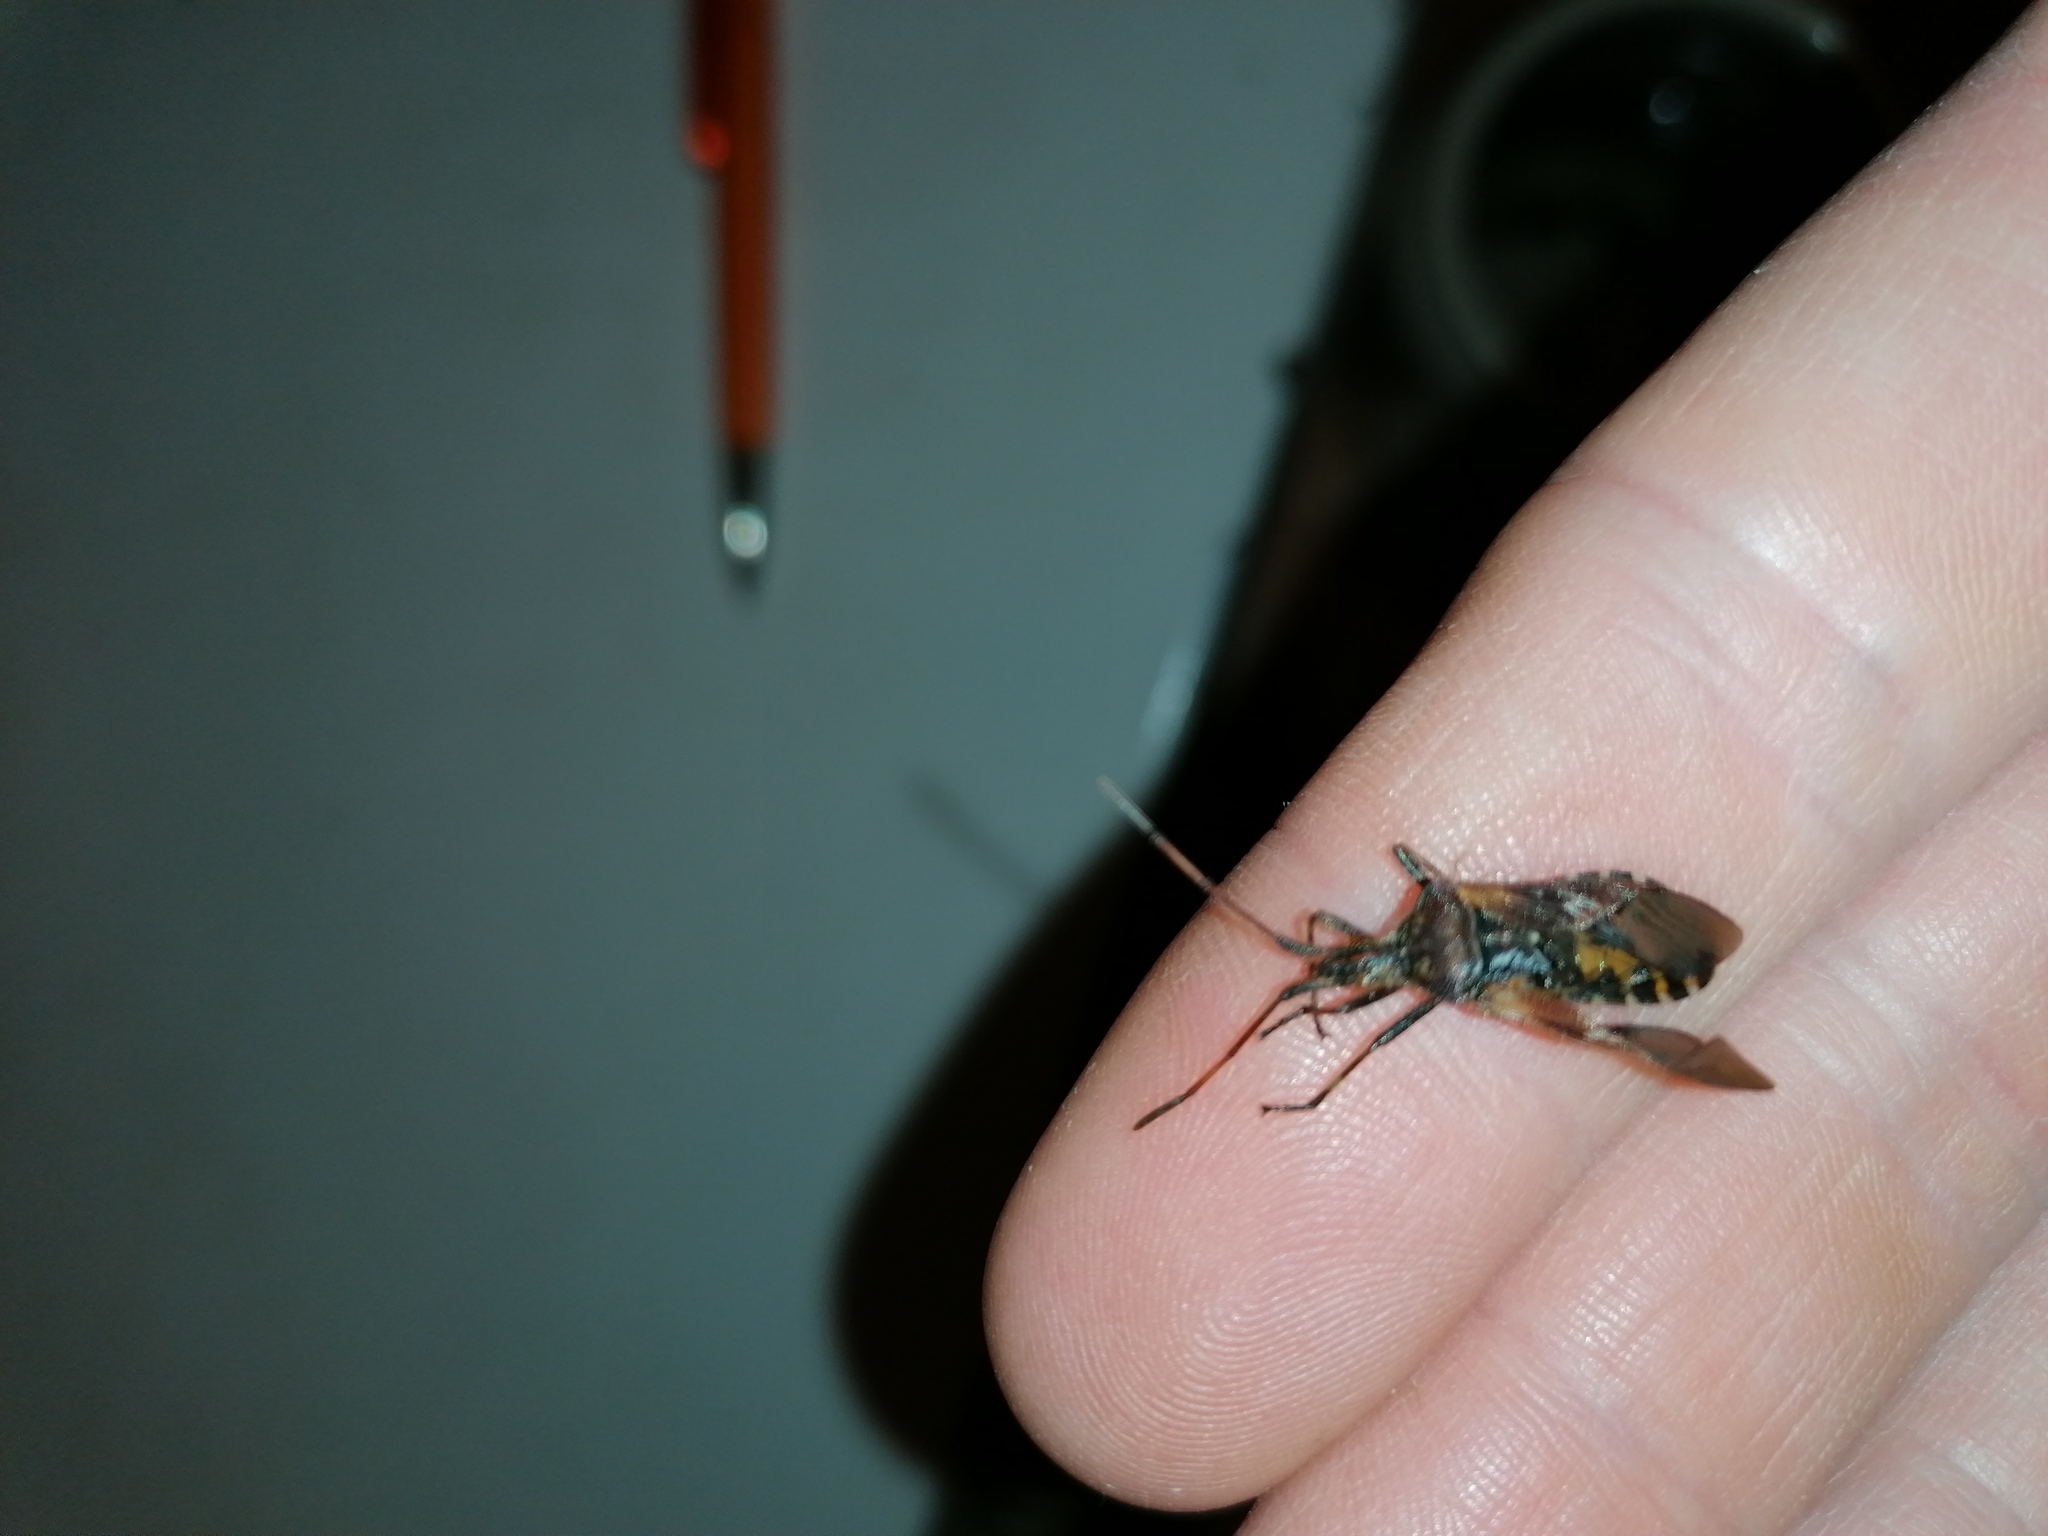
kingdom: Animalia
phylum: Arthropoda
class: Insecta
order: Hemiptera
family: Coreidae
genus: Leptoglossus
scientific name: Leptoglossus occidentalis
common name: Western conifer-seed bug
